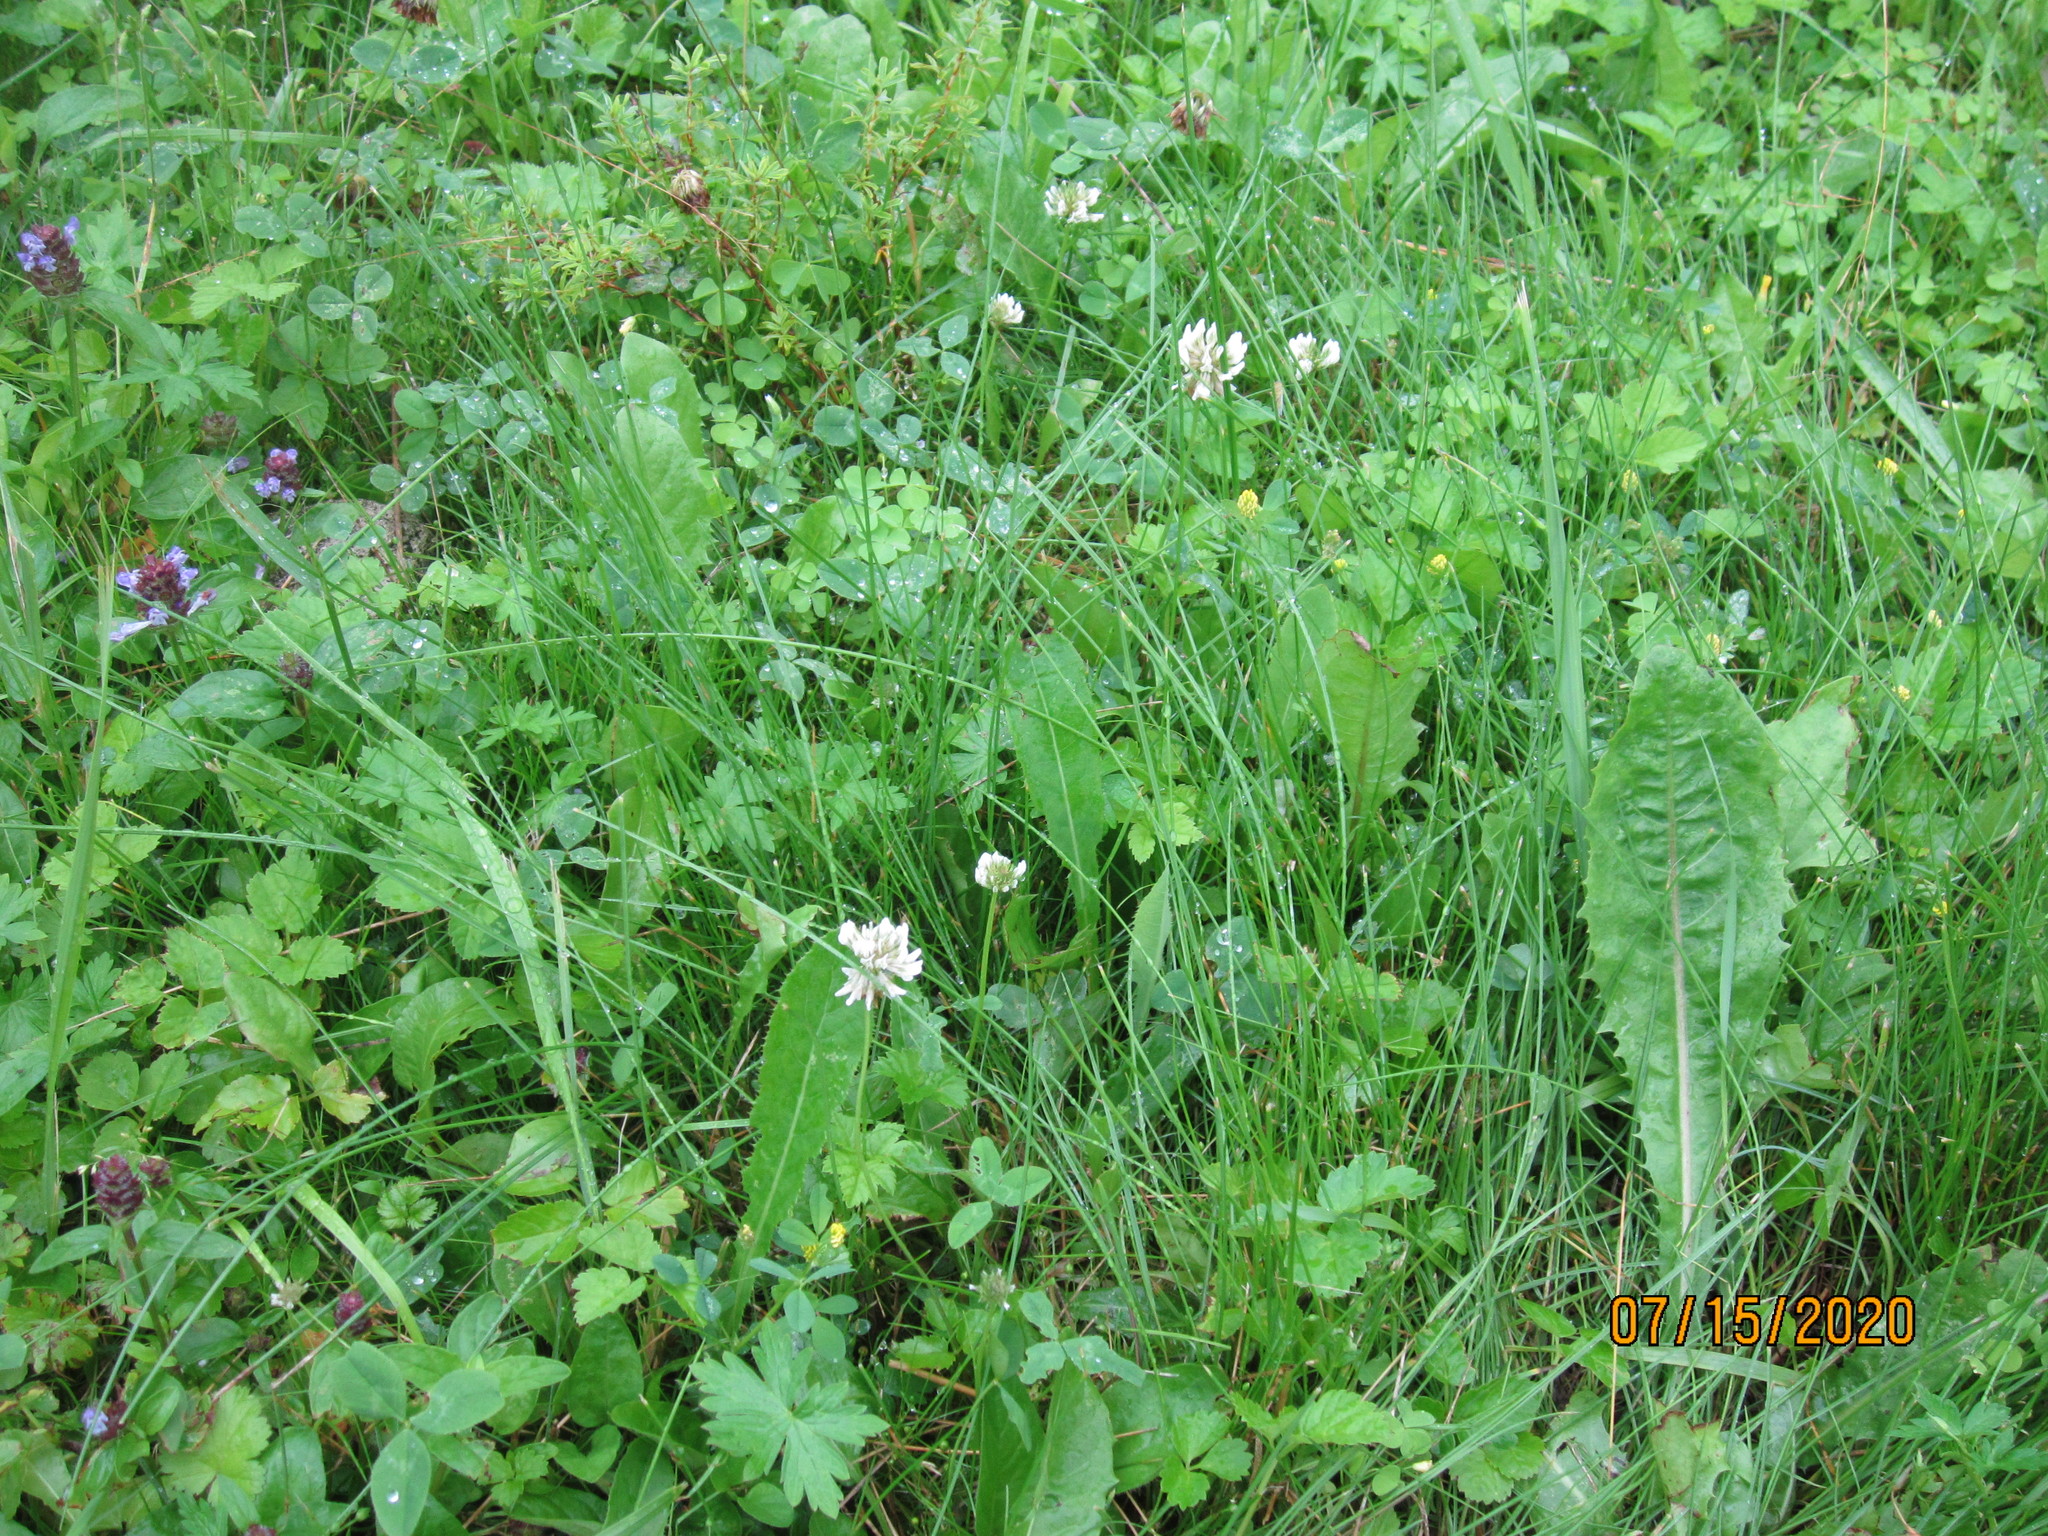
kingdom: Plantae
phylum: Tracheophyta
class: Magnoliopsida
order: Fabales
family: Fabaceae
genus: Trifolium
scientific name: Trifolium repens
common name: White clover
